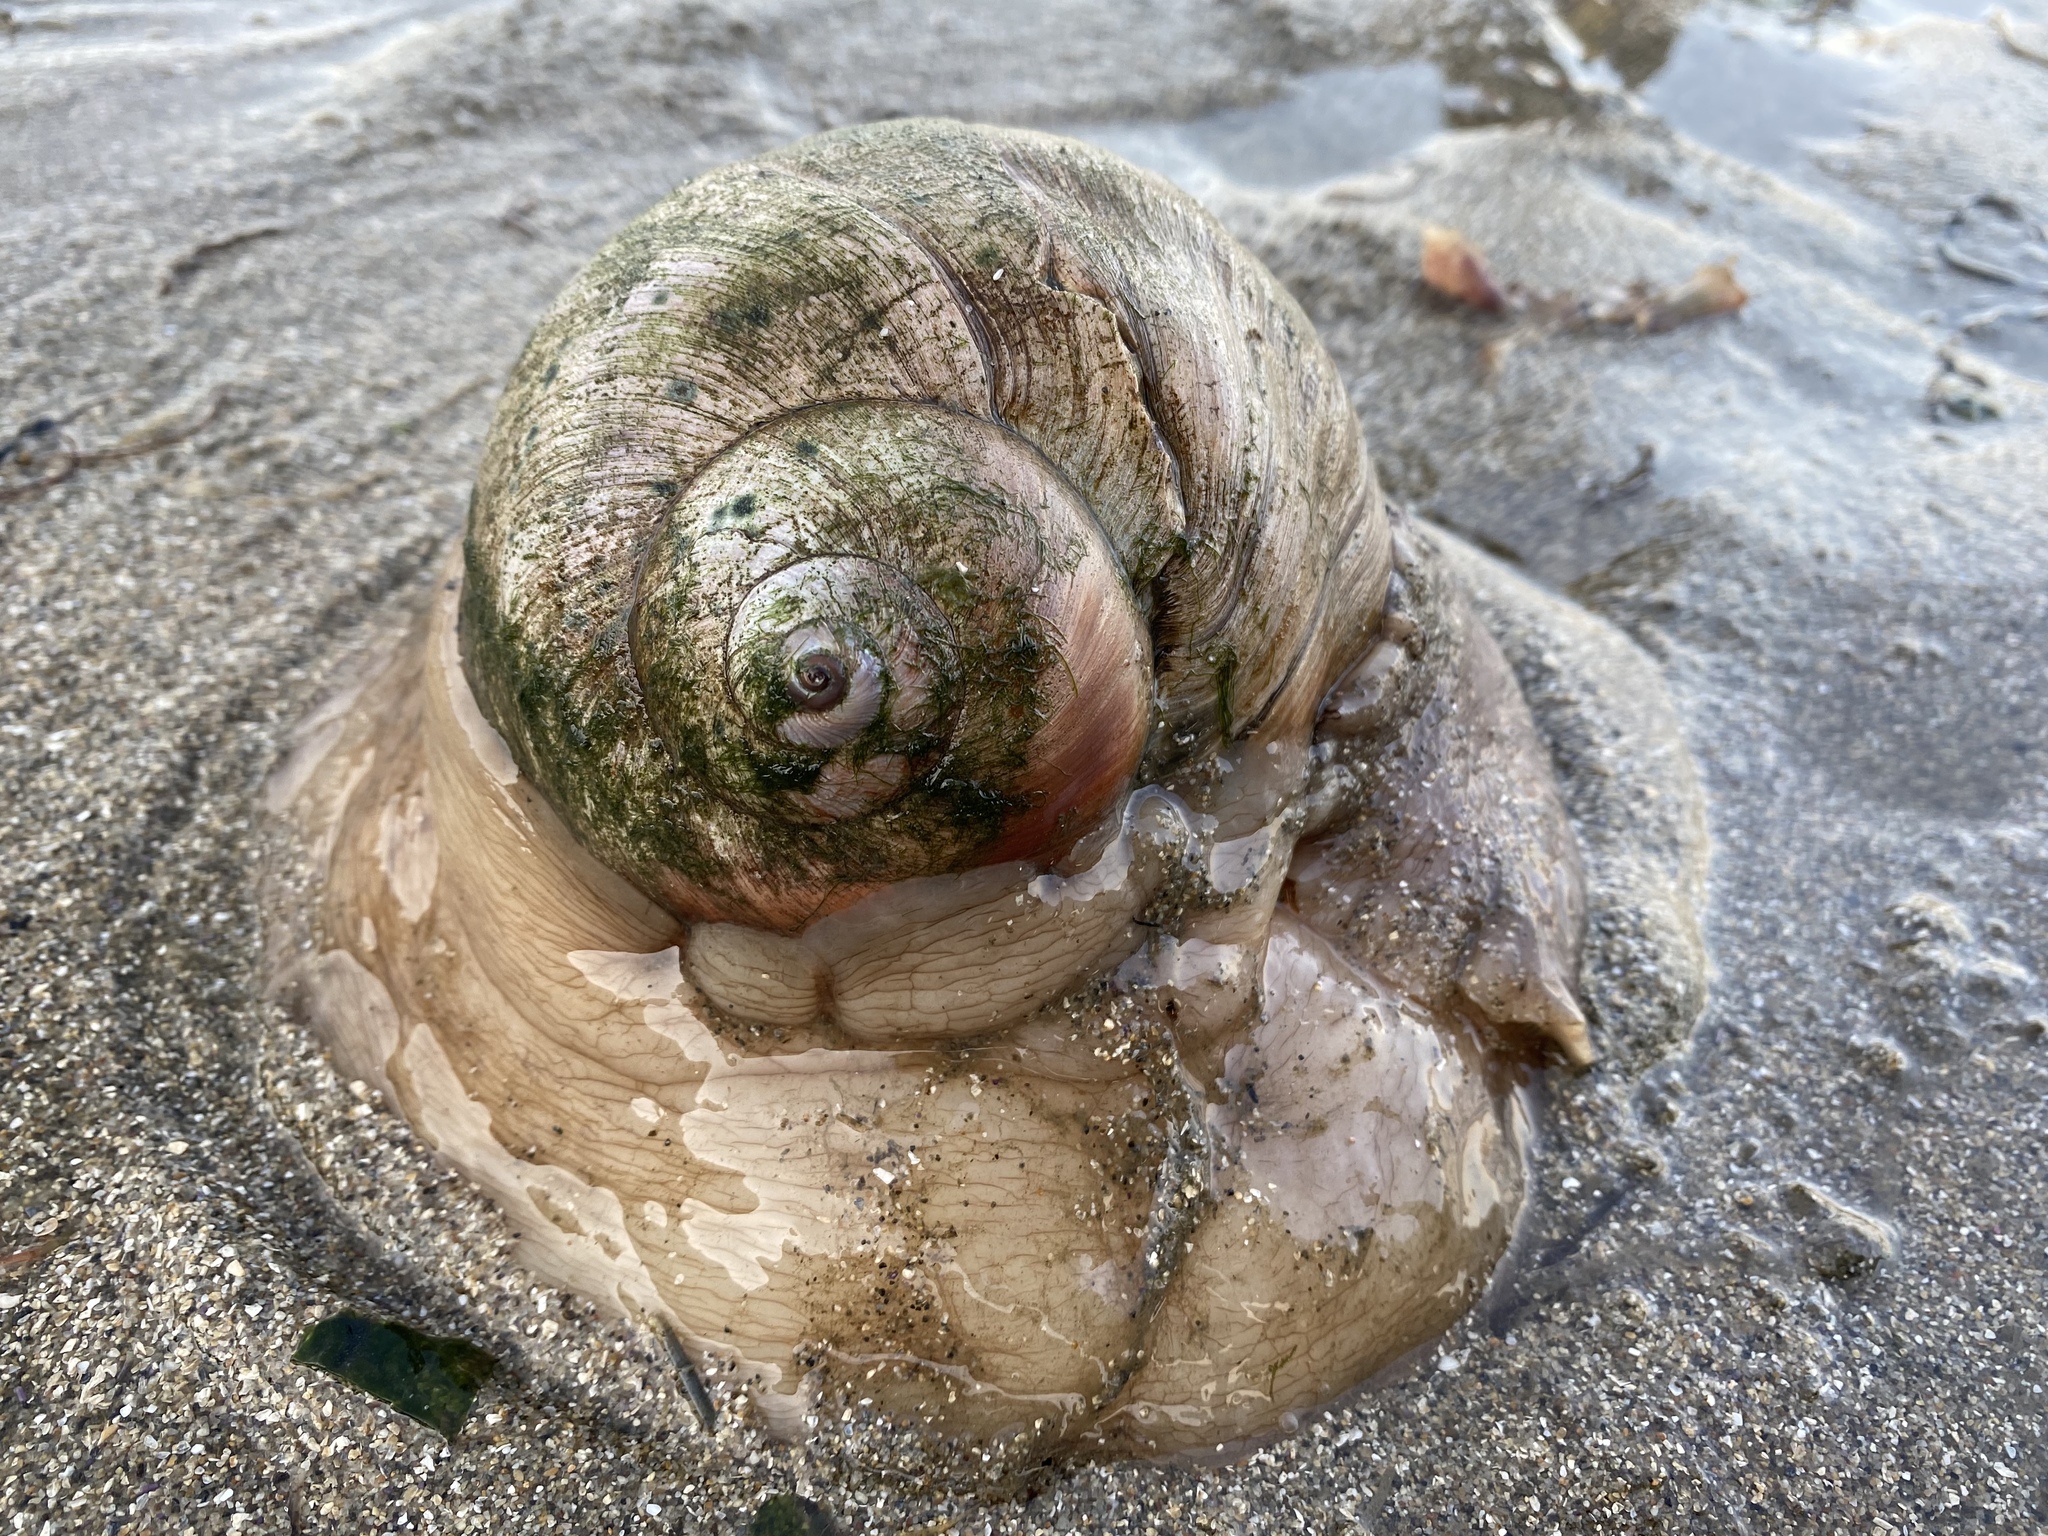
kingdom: Animalia
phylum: Mollusca
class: Gastropoda
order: Littorinimorpha
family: Naticidae
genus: Neverita
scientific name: Neverita lewisii
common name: Lewis' moonsnail
